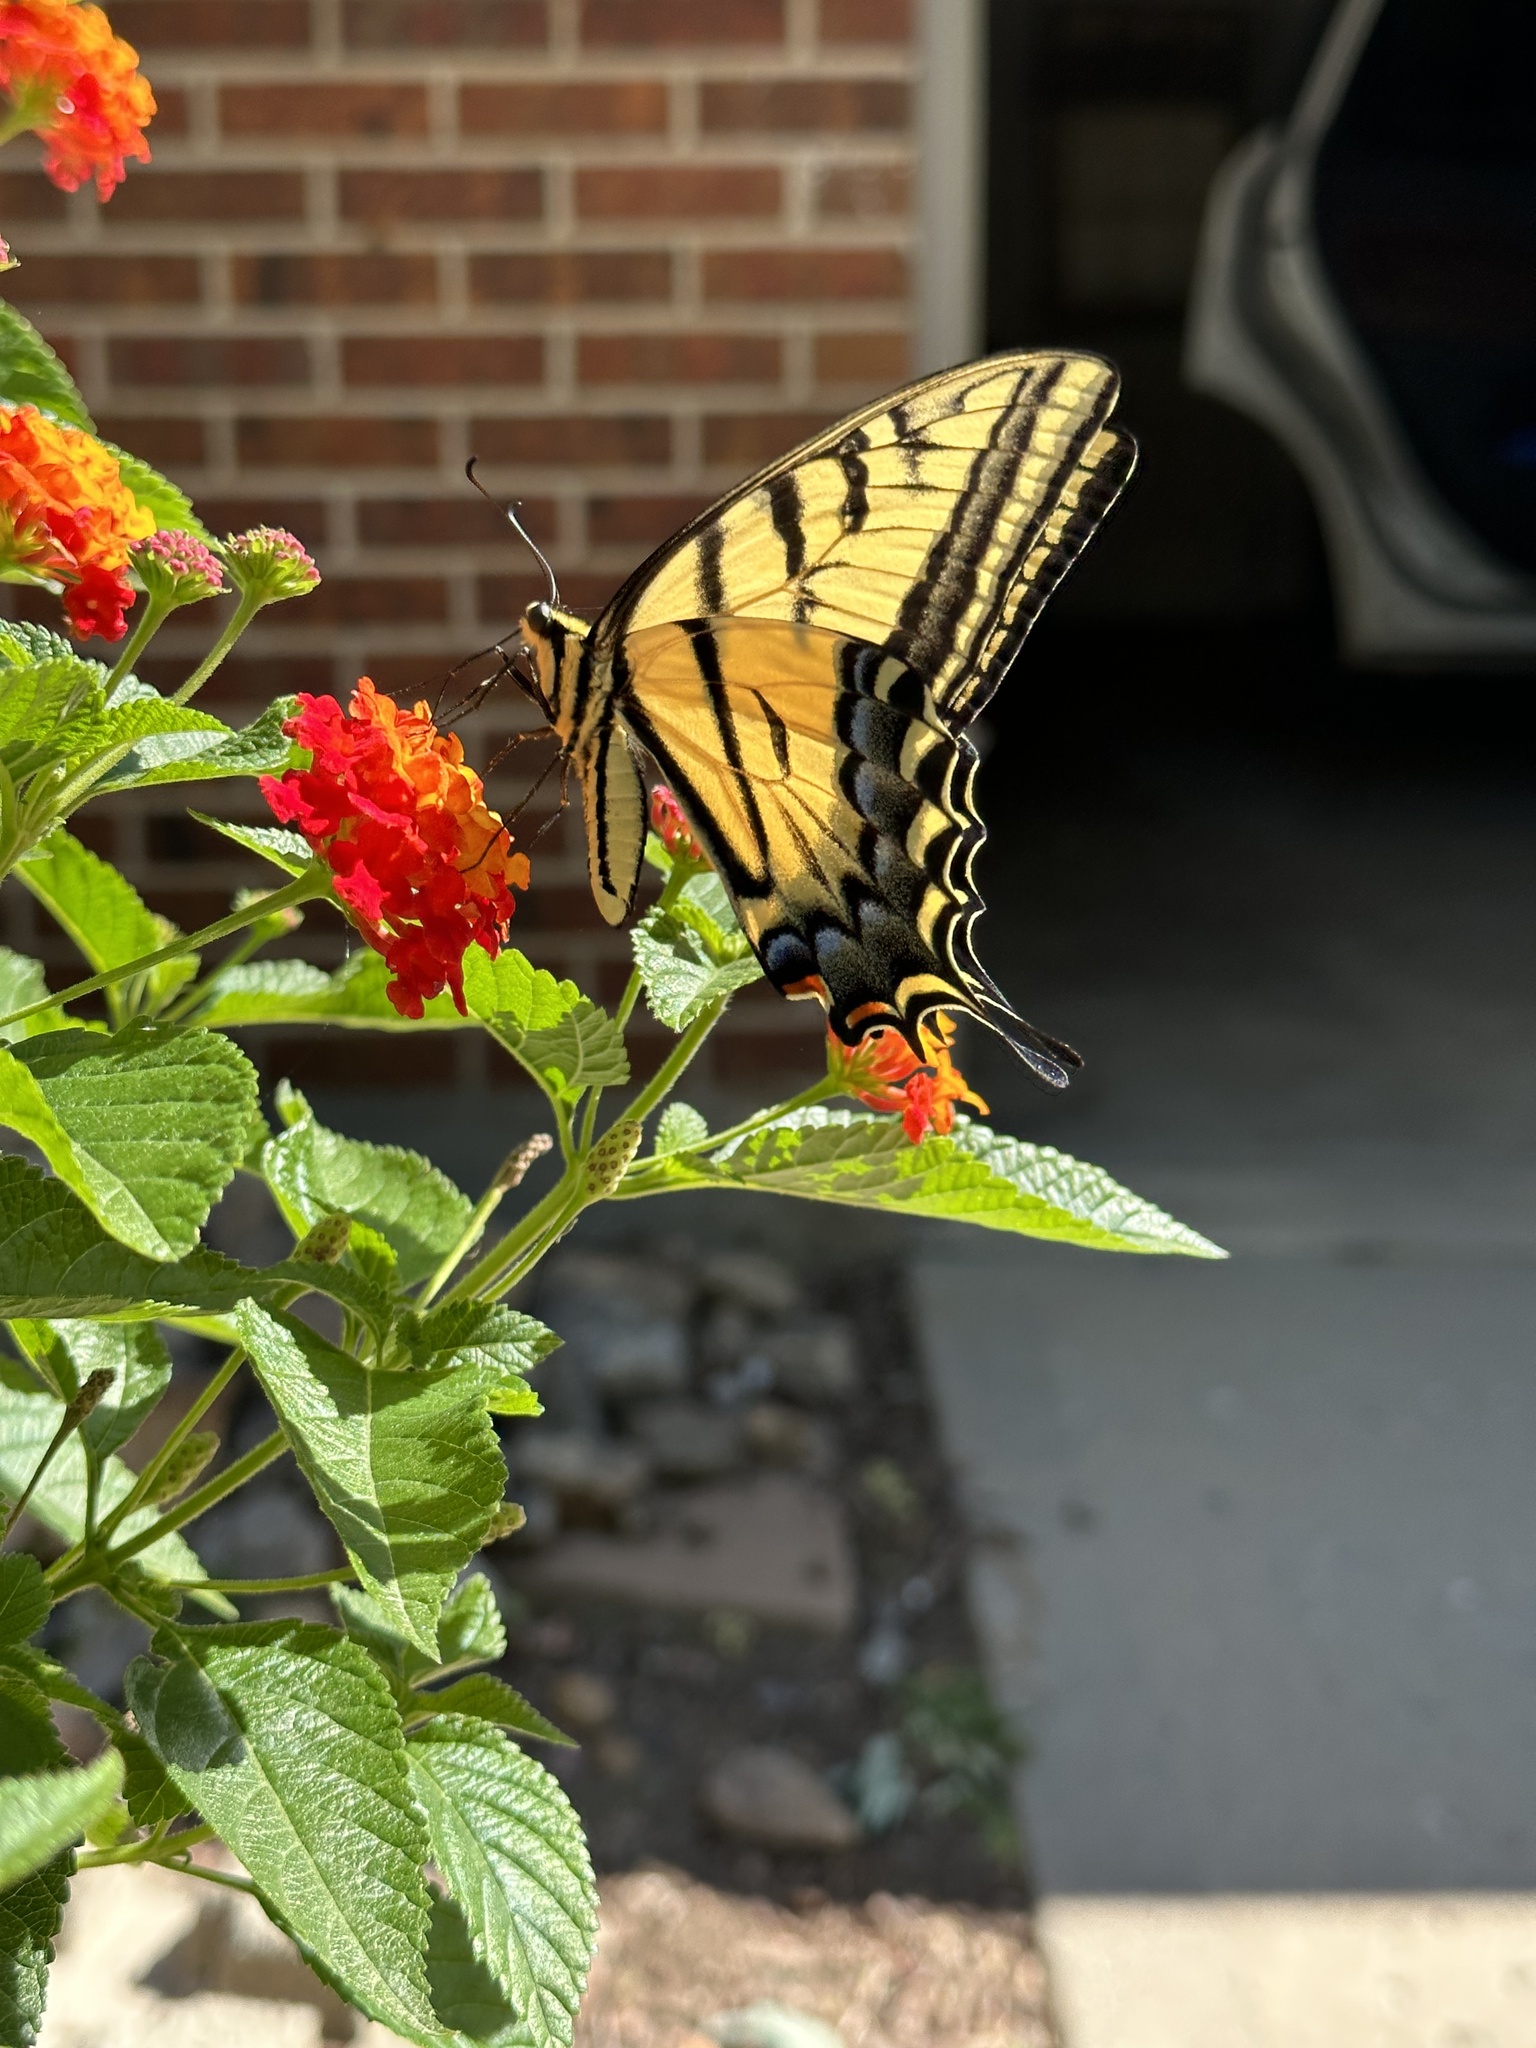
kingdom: Animalia
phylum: Arthropoda
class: Insecta
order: Lepidoptera
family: Papilionidae
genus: Papilio
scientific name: Papilio multicaudata
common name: Two-tailed tiger swallowtail
